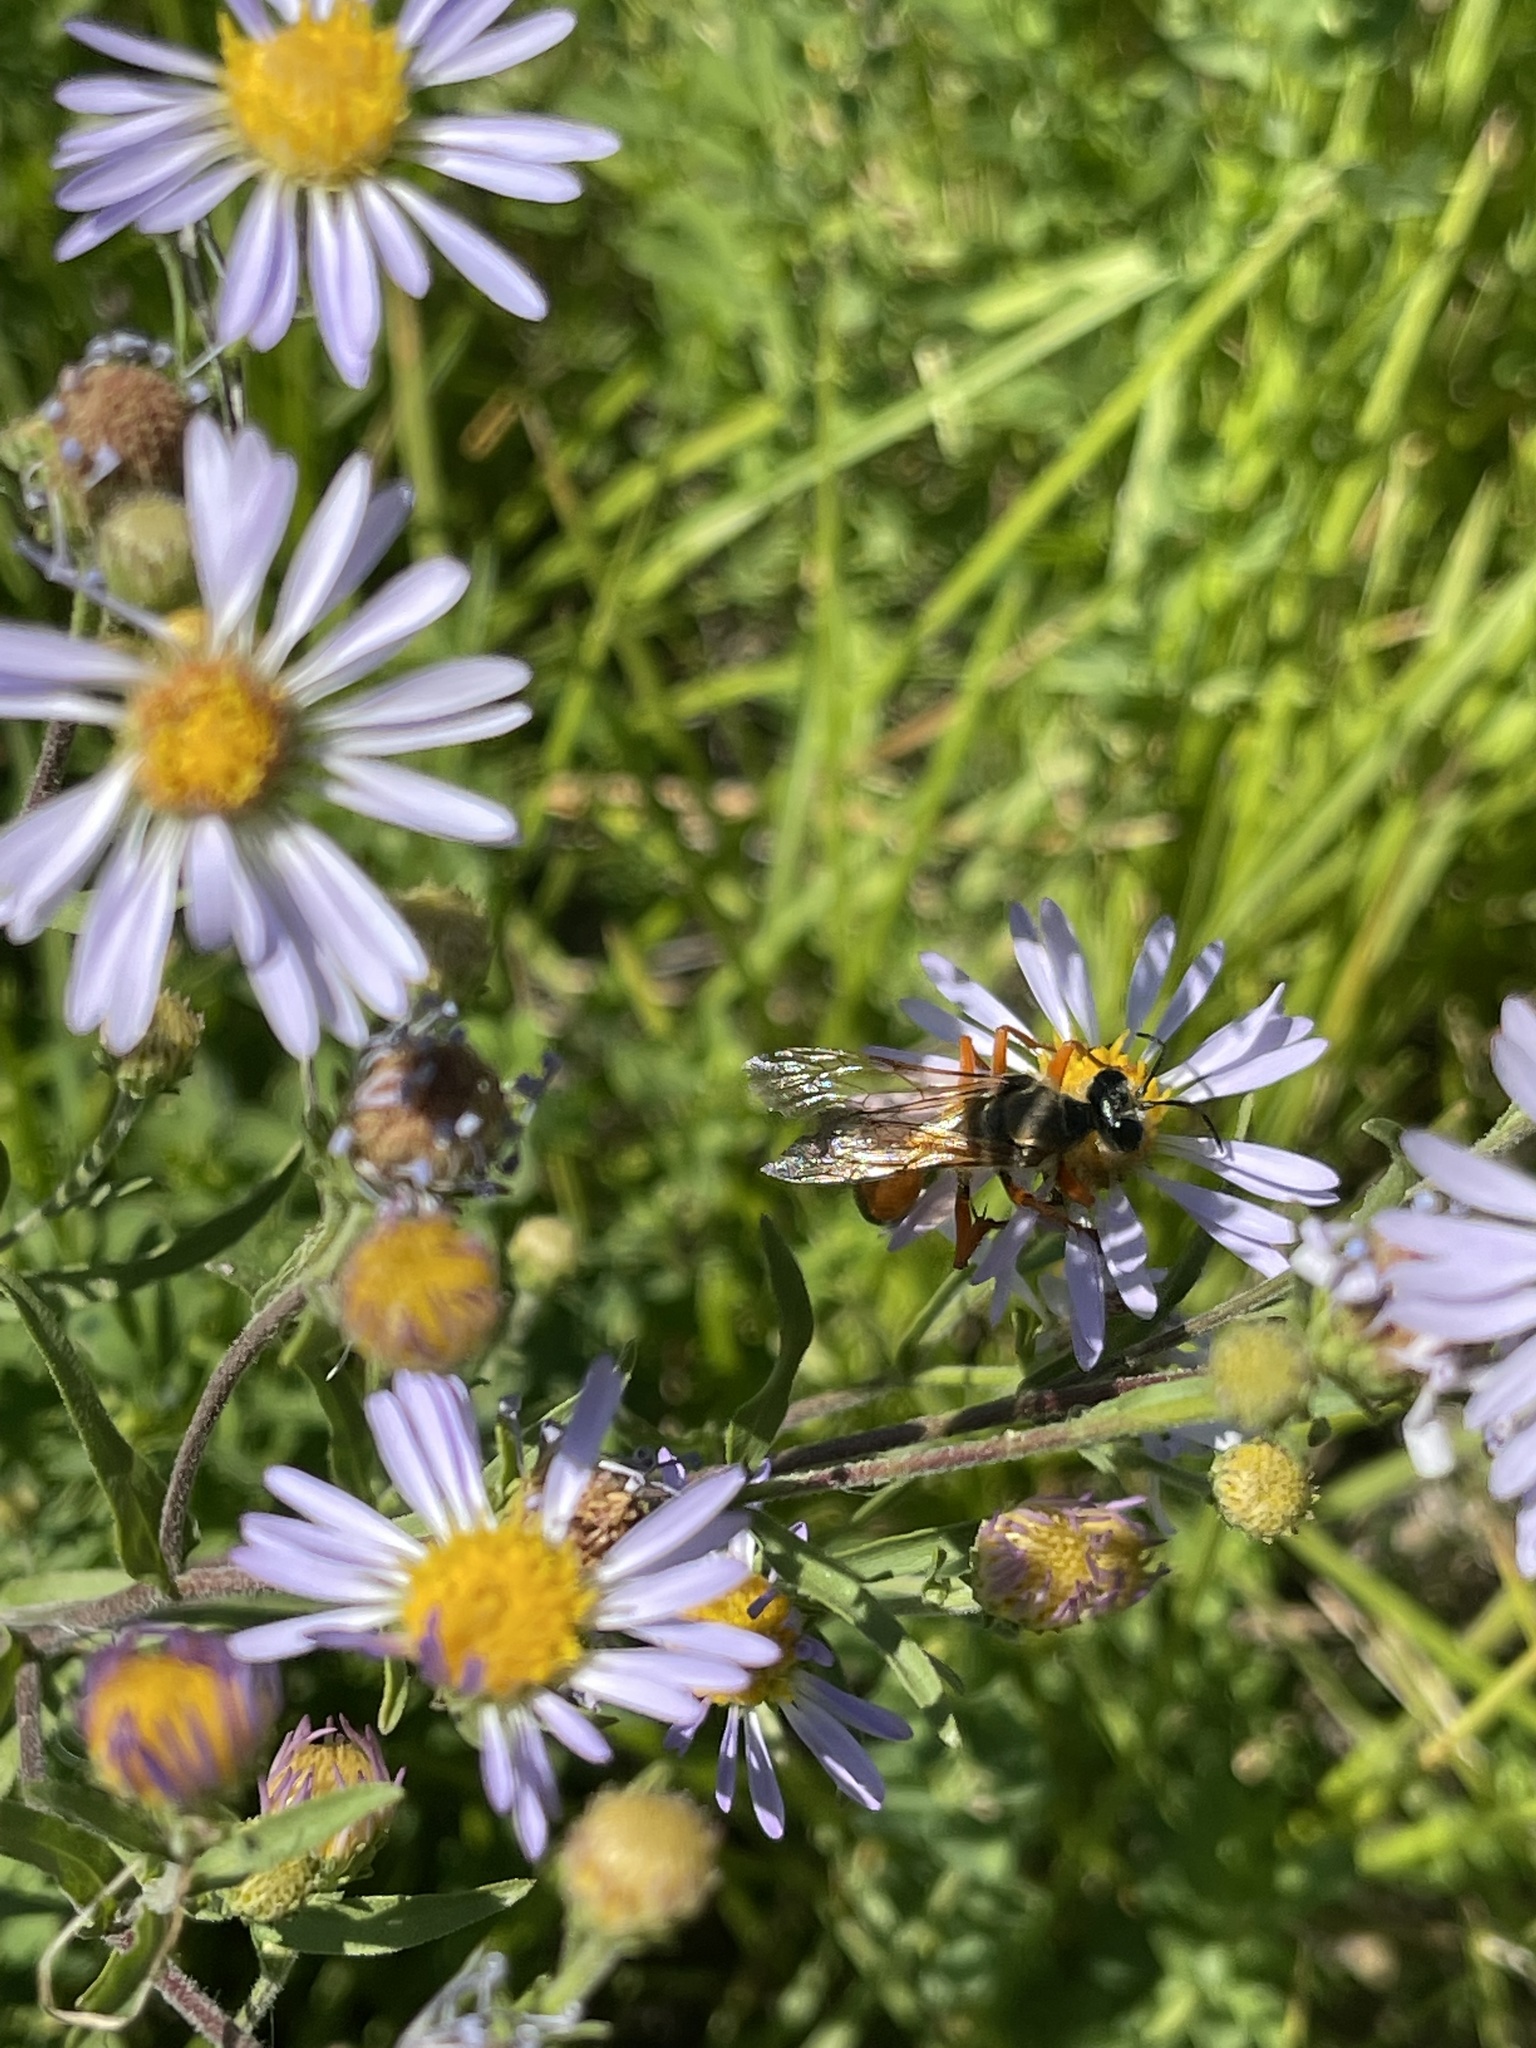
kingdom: Animalia
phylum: Arthropoda
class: Insecta
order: Hymenoptera
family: Sphecidae
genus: Sphex
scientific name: Sphex ichneumoneus
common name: Great golden digger wasp
